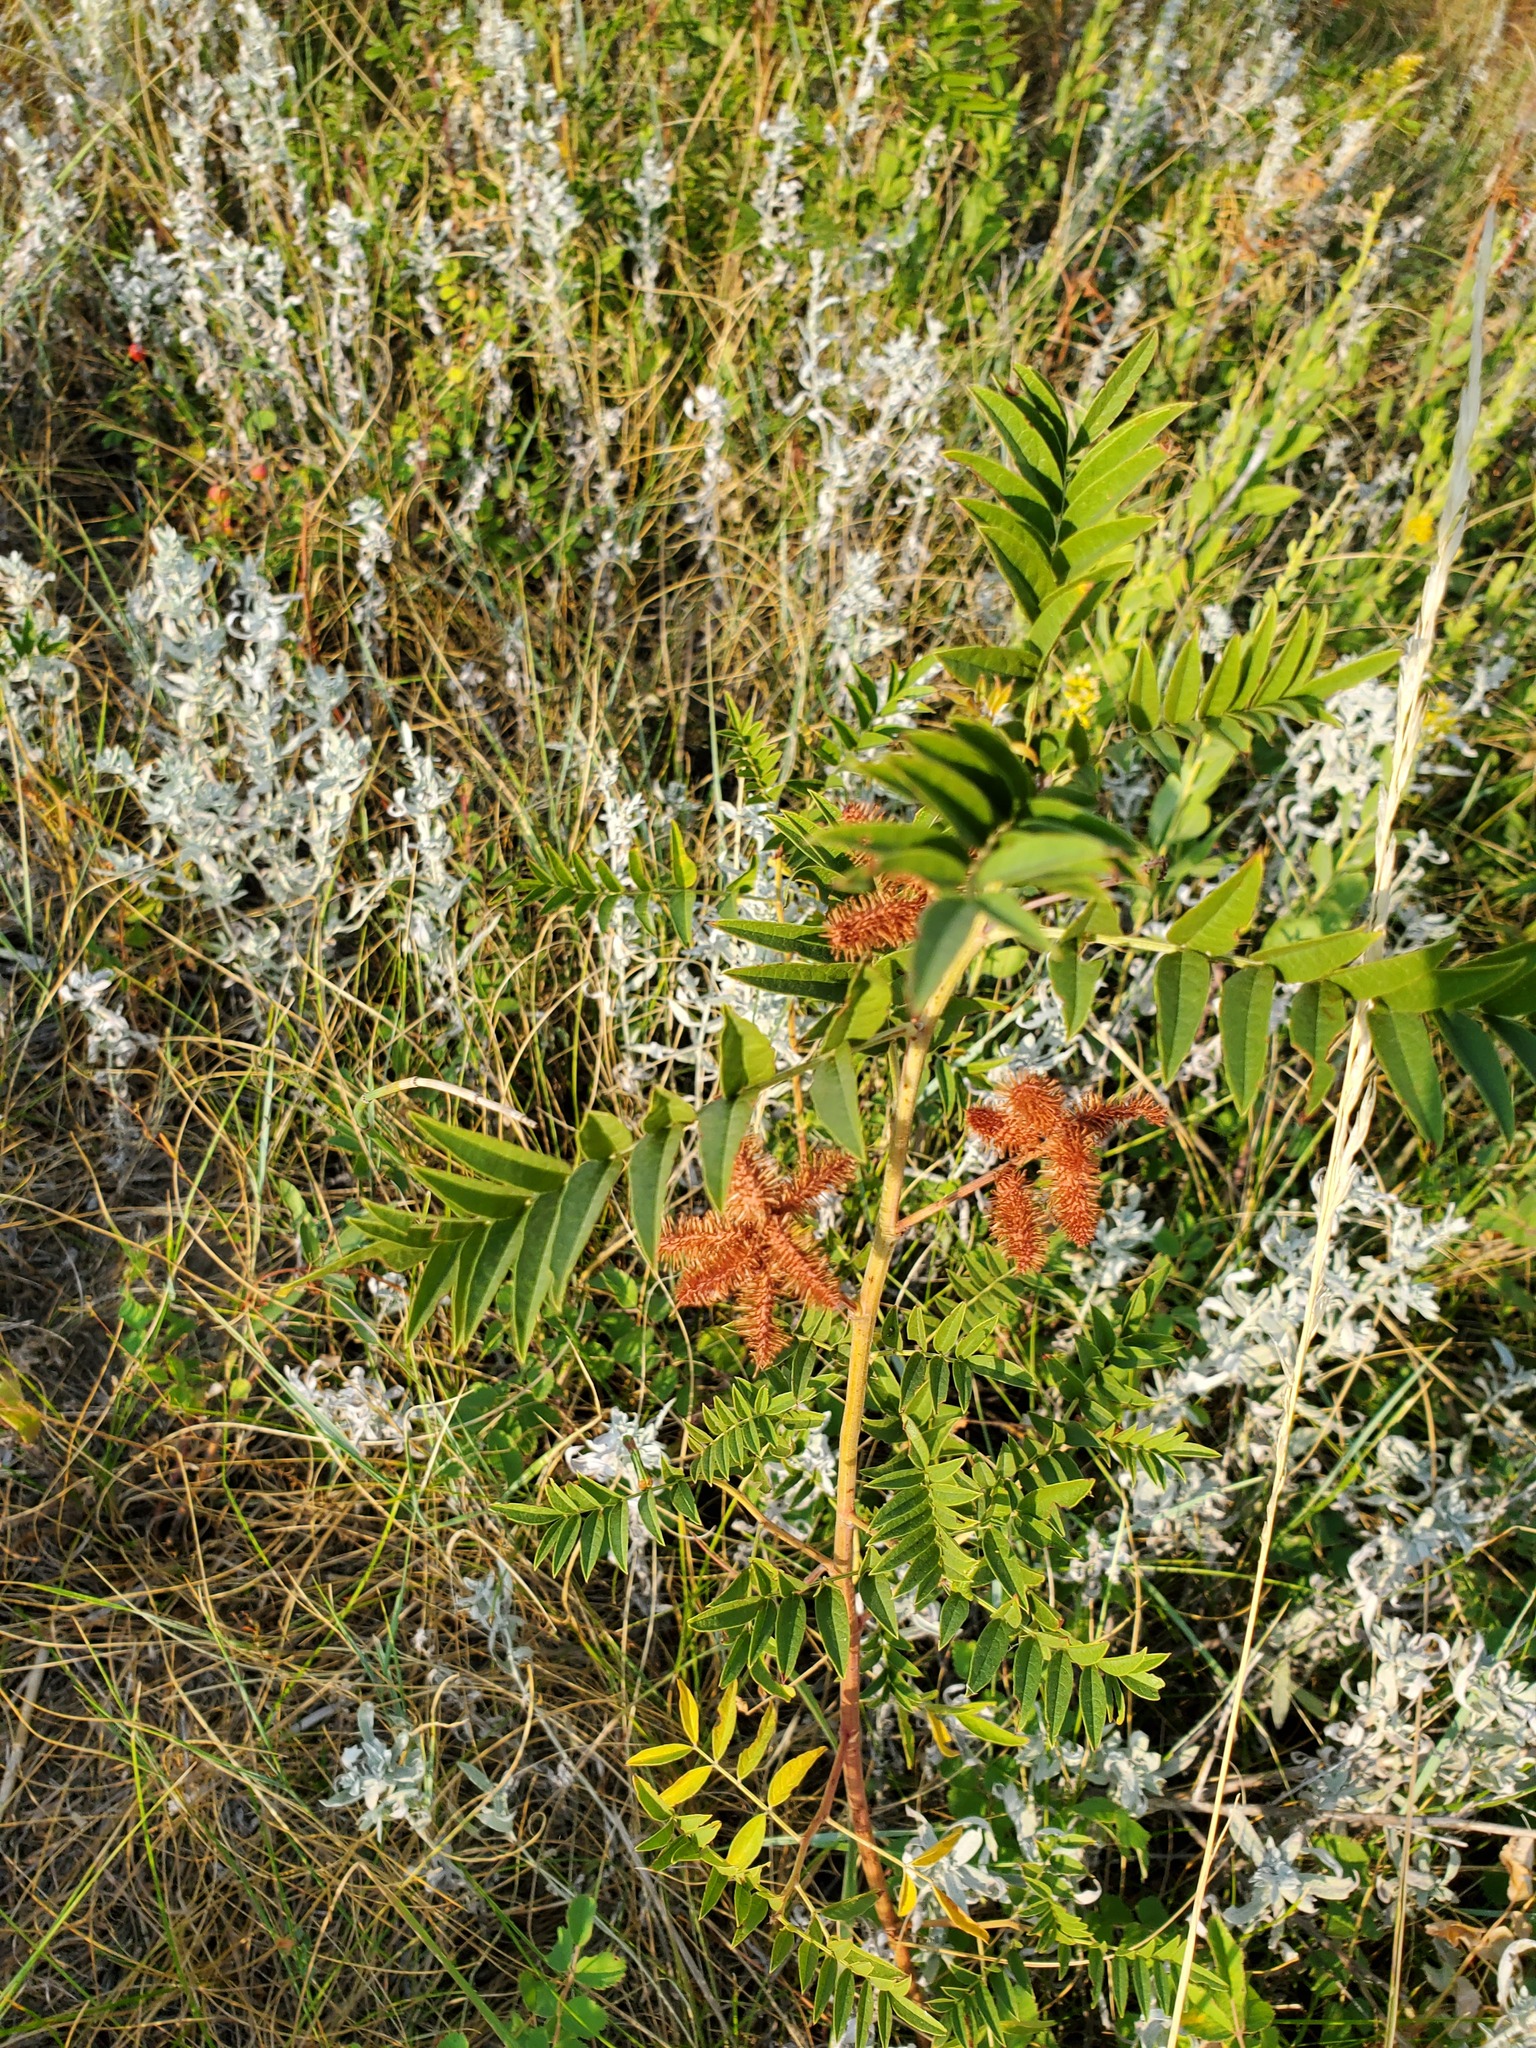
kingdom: Plantae
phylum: Tracheophyta
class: Magnoliopsida
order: Fabales
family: Fabaceae
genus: Glycyrrhiza
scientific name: Glycyrrhiza lepidota
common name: American liquorice
